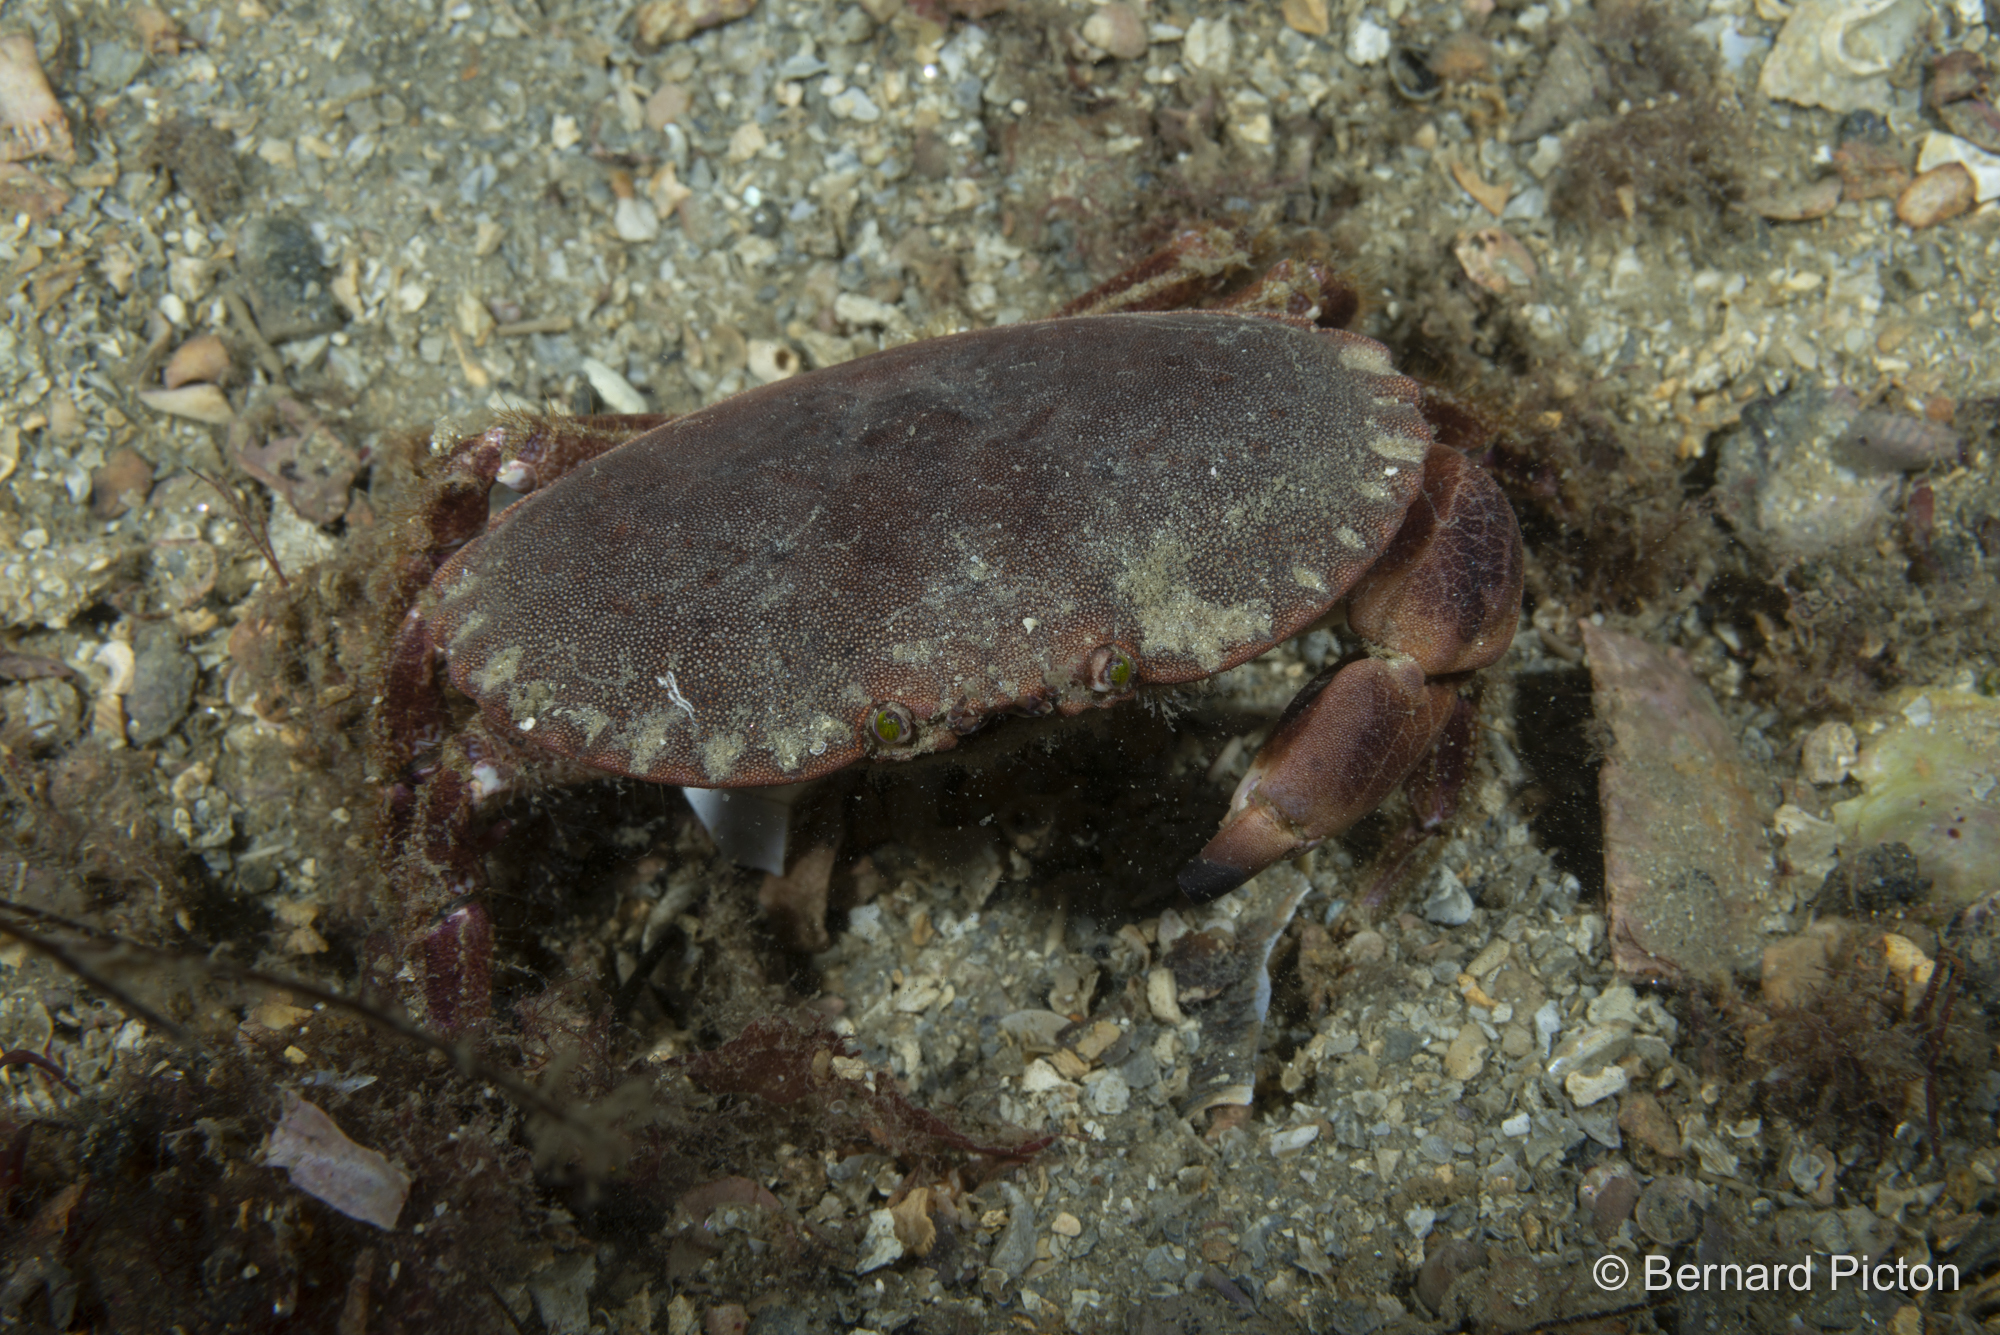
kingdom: Animalia
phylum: Arthropoda
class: Malacostraca
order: Decapoda
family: Cancridae
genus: Cancer
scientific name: Cancer pagurus
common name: Edible crab
